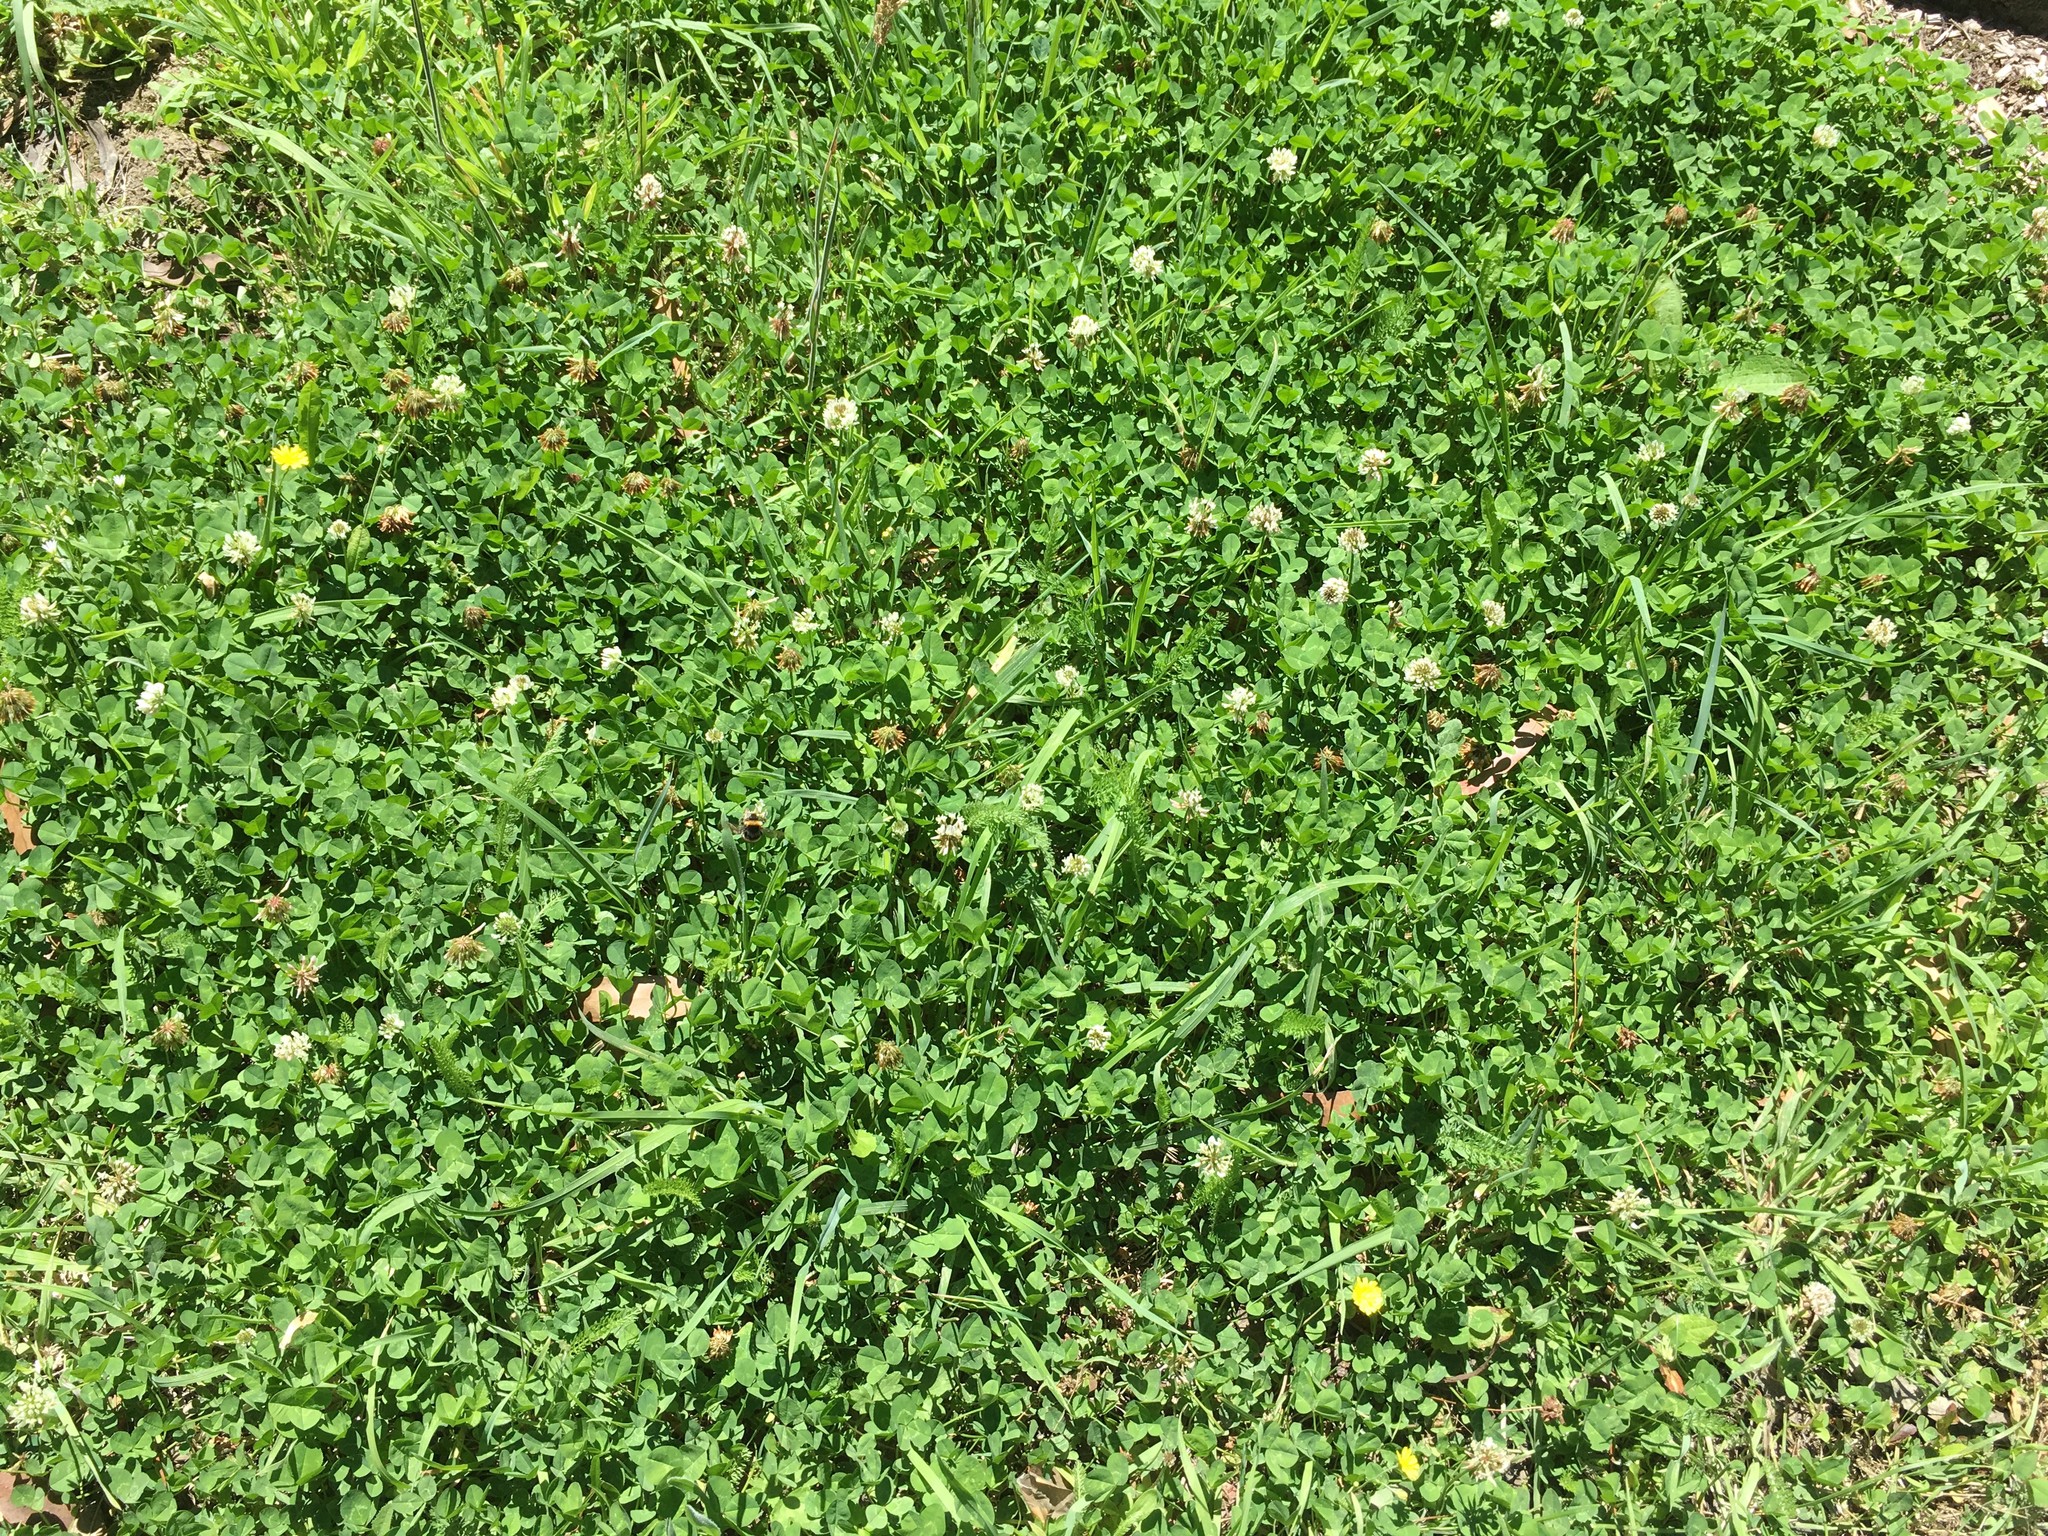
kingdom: Plantae
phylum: Tracheophyta
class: Magnoliopsida
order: Fabales
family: Fabaceae
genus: Trifolium
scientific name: Trifolium repens
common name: White clover
